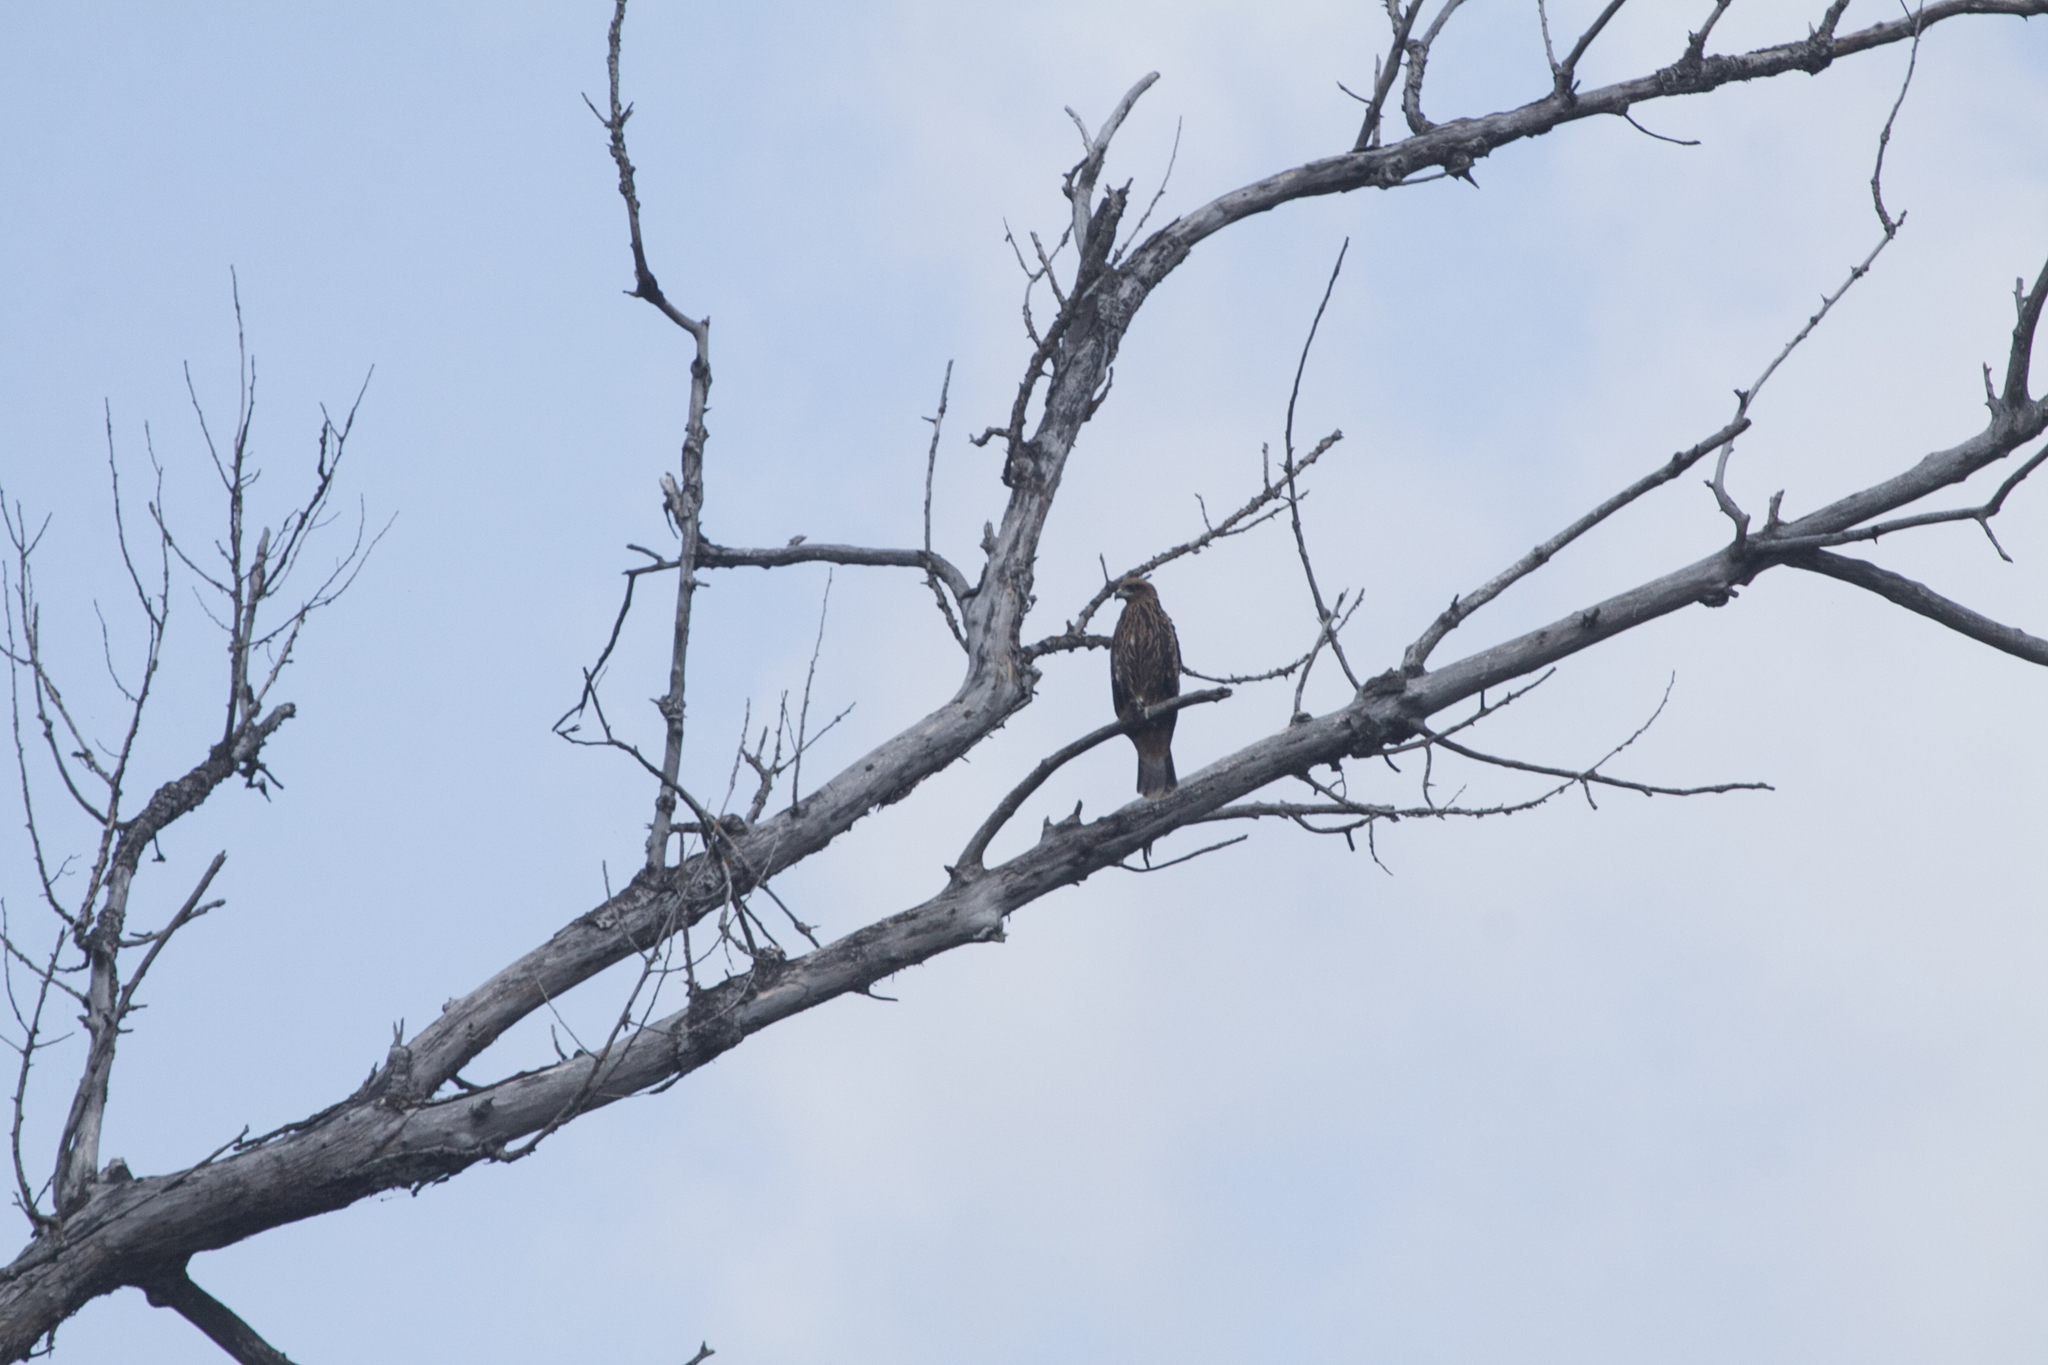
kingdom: Animalia
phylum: Chordata
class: Aves
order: Accipitriformes
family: Accipitridae
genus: Milvus
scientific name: Milvus migrans
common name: Black kite
